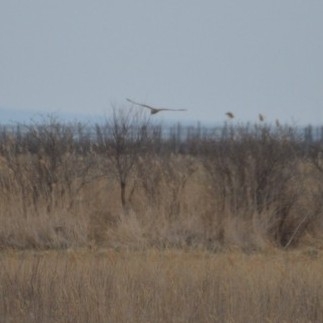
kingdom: Animalia
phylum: Chordata
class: Aves
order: Accipitriformes
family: Accipitridae
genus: Circus
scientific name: Circus cyaneus
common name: Hen harrier
